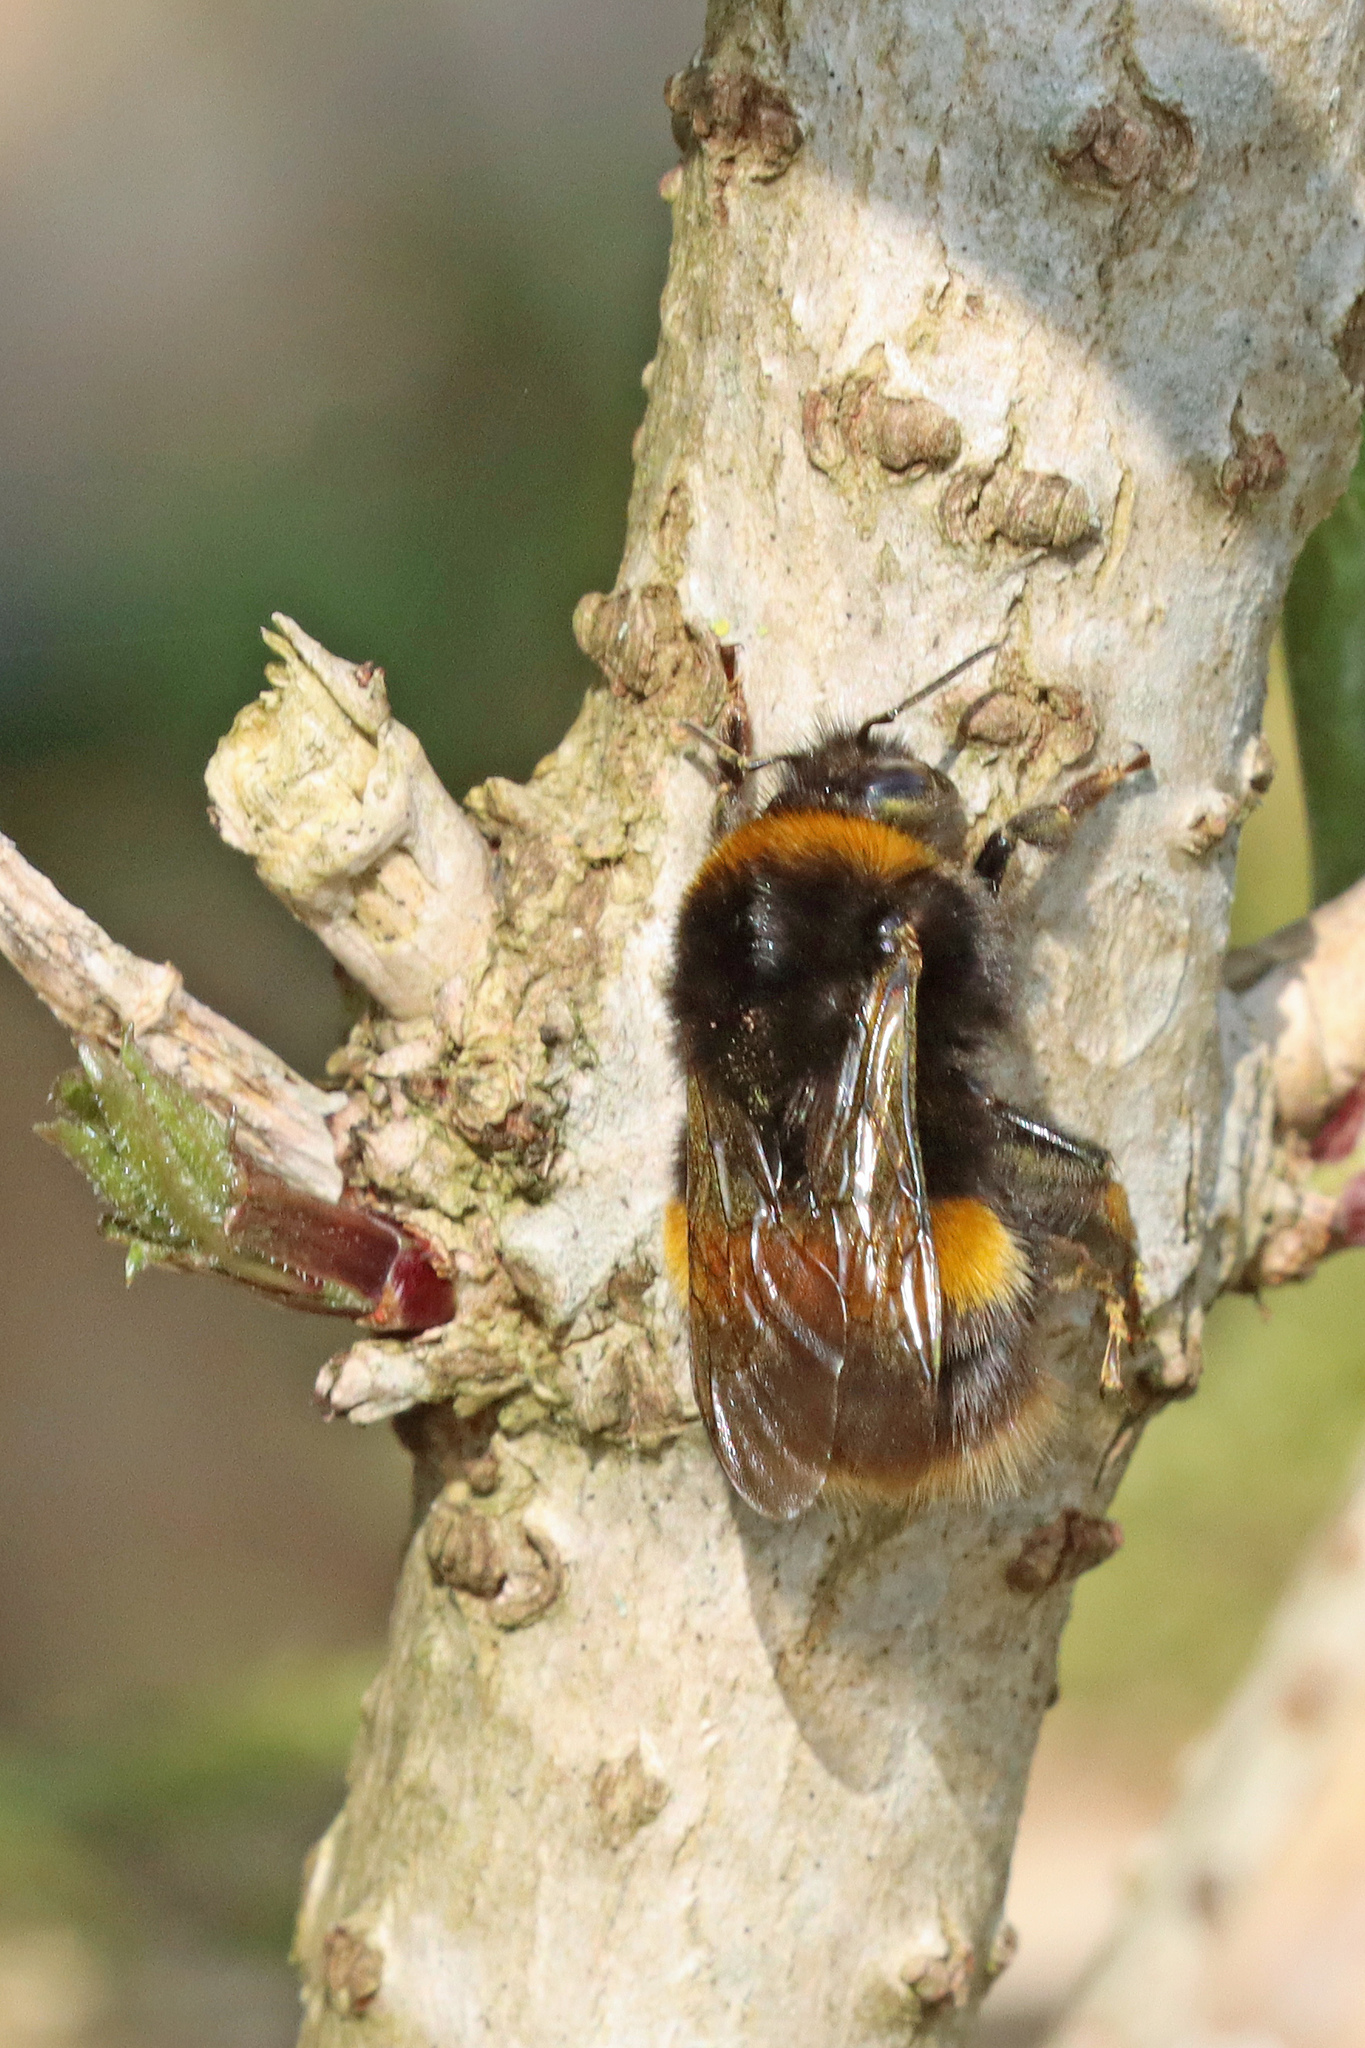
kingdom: Animalia
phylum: Arthropoda
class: Insecta
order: Hymenoptera
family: Apidae
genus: Bombus
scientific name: Bombus terrestris
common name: Buff-tailed bumblebee
